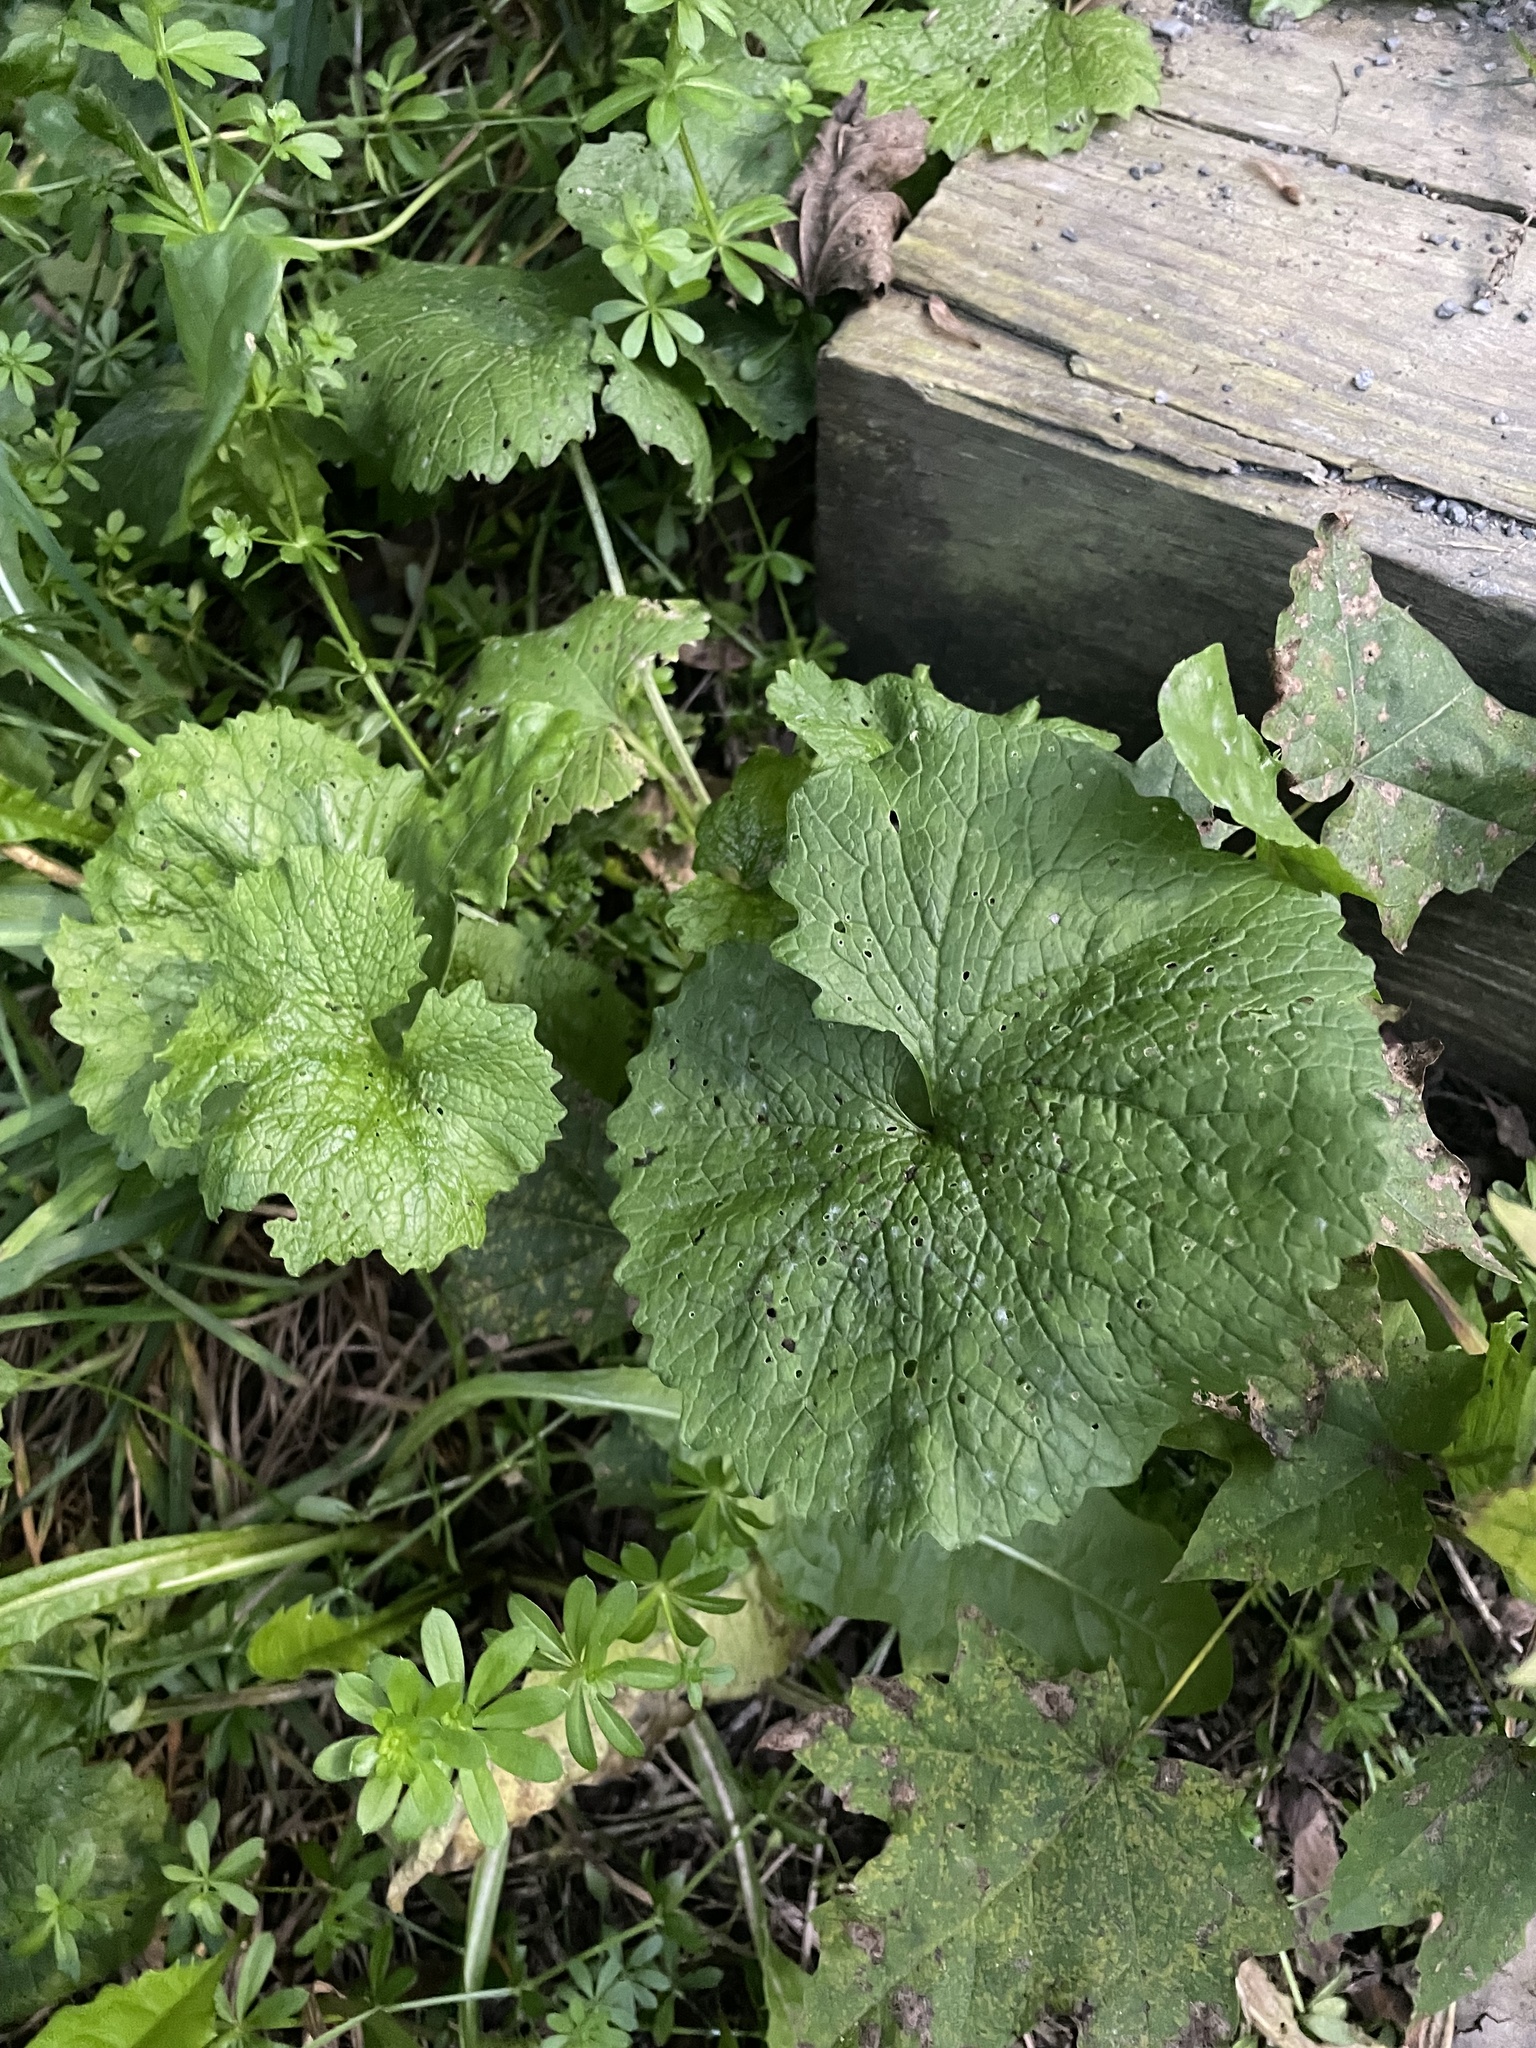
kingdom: Plantae
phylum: Tracheophyta
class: Magnoliopsida
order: Brassicales
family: Brassicaceae
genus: Alliaria
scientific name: Alliaria petiolata
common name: Garlic mustard
